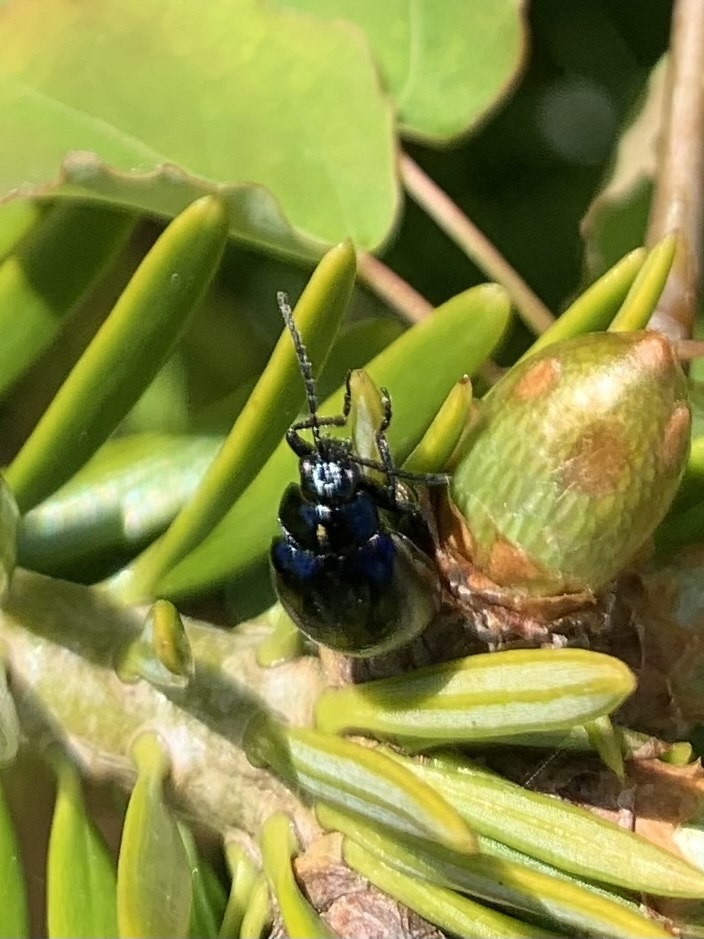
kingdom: Animalia
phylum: Arthropoda
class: Insecta
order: Coleoptera
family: Chrysomelidae
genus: Agelastica
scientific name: Agelastica alni
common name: Alder leaf beetle
